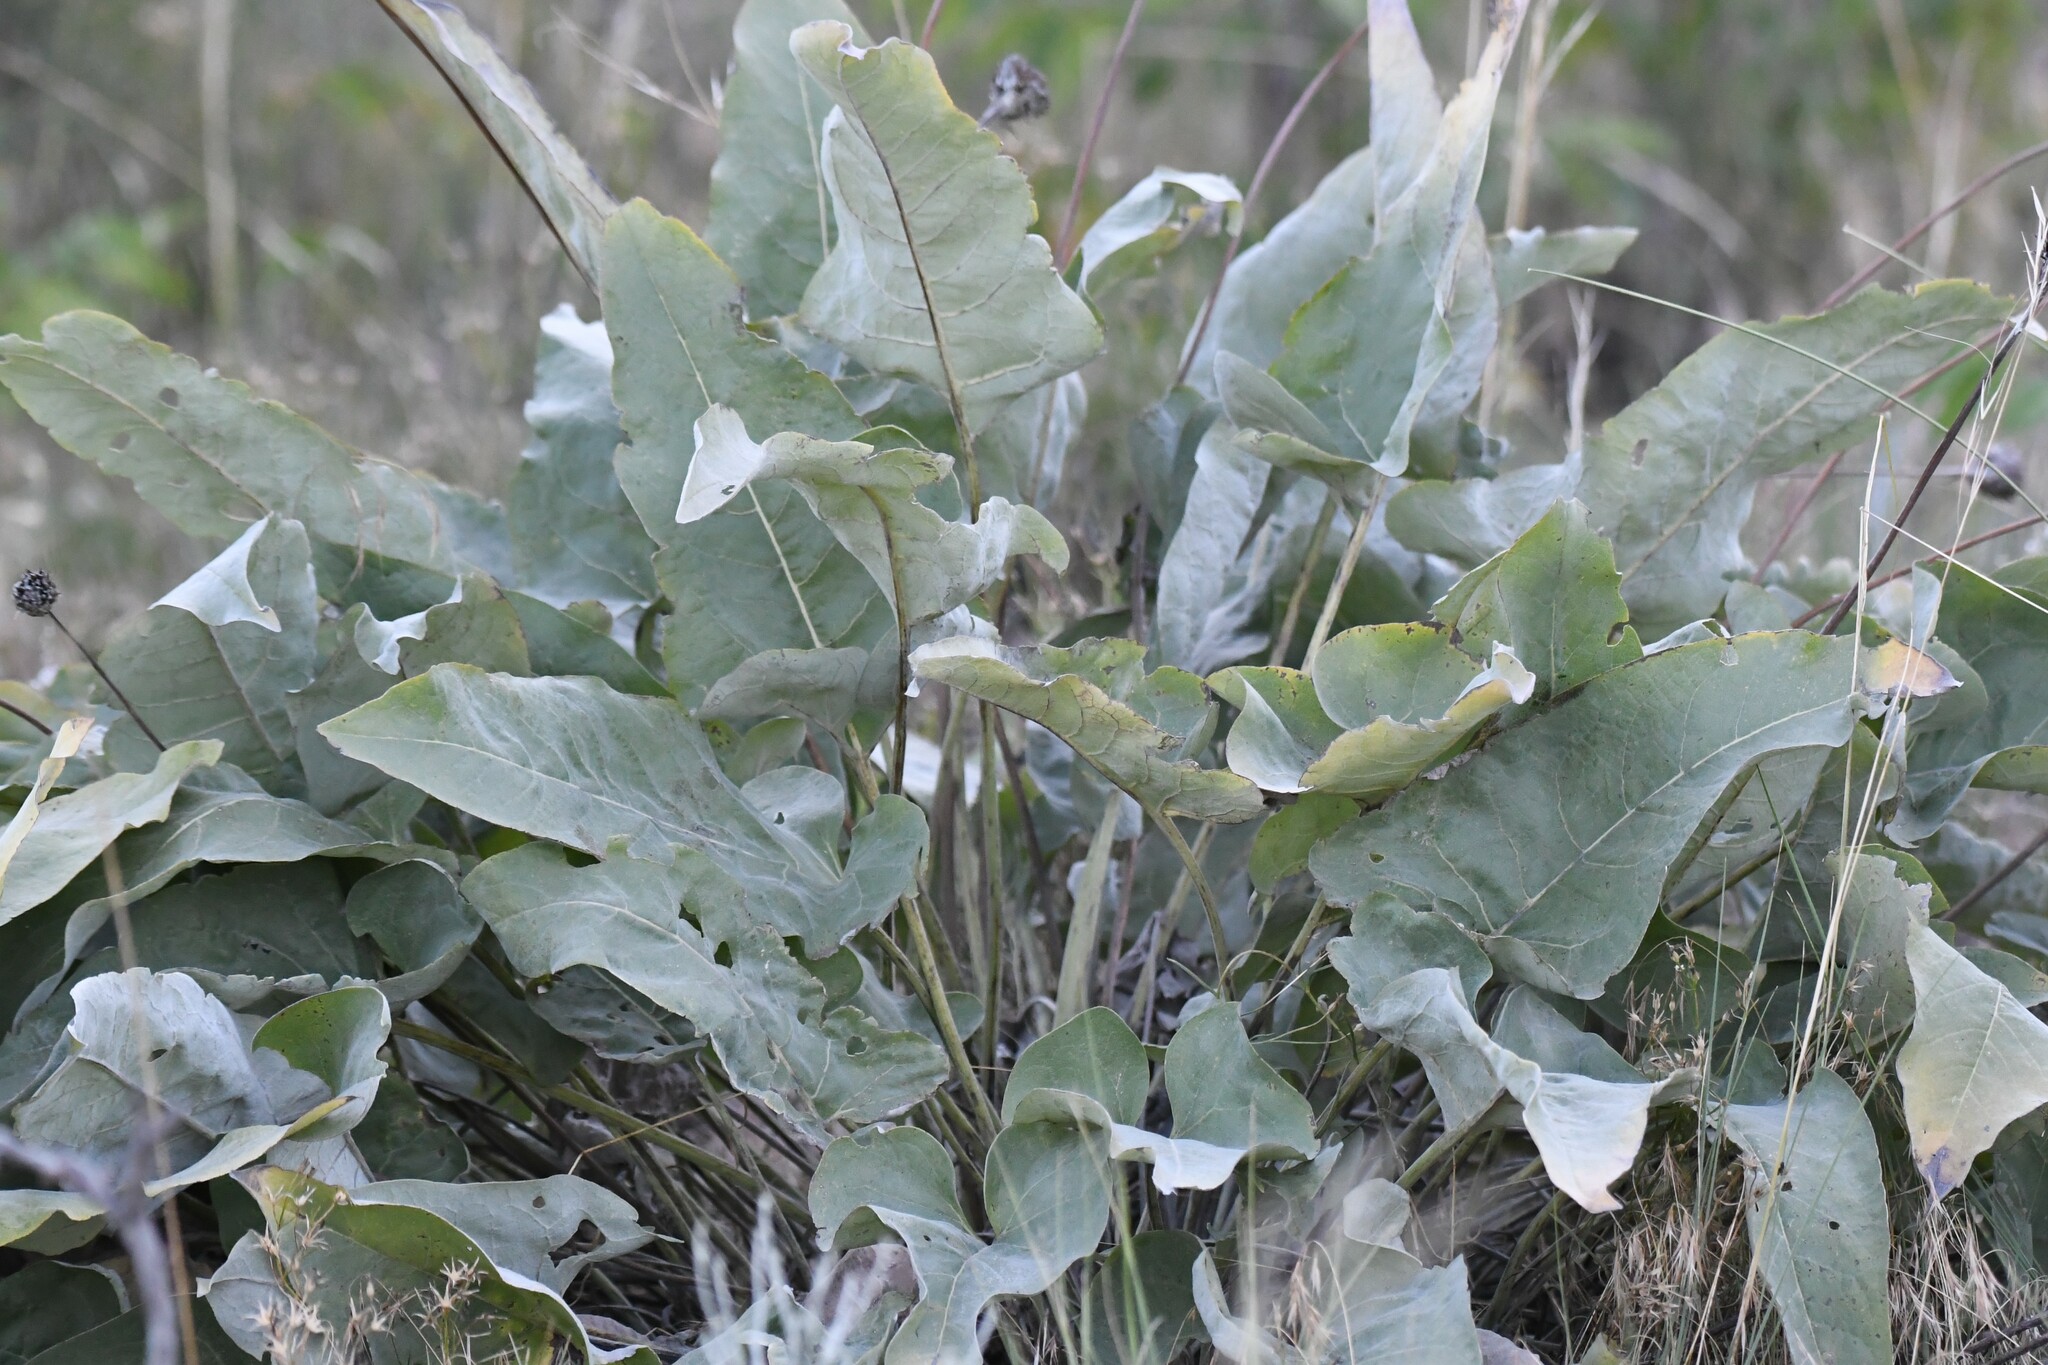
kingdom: Plantae
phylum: Tracheophyta
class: Magnoliopsida
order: Asterales
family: Asteraceae
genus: Wyethia
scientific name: Wyethia sagittata
